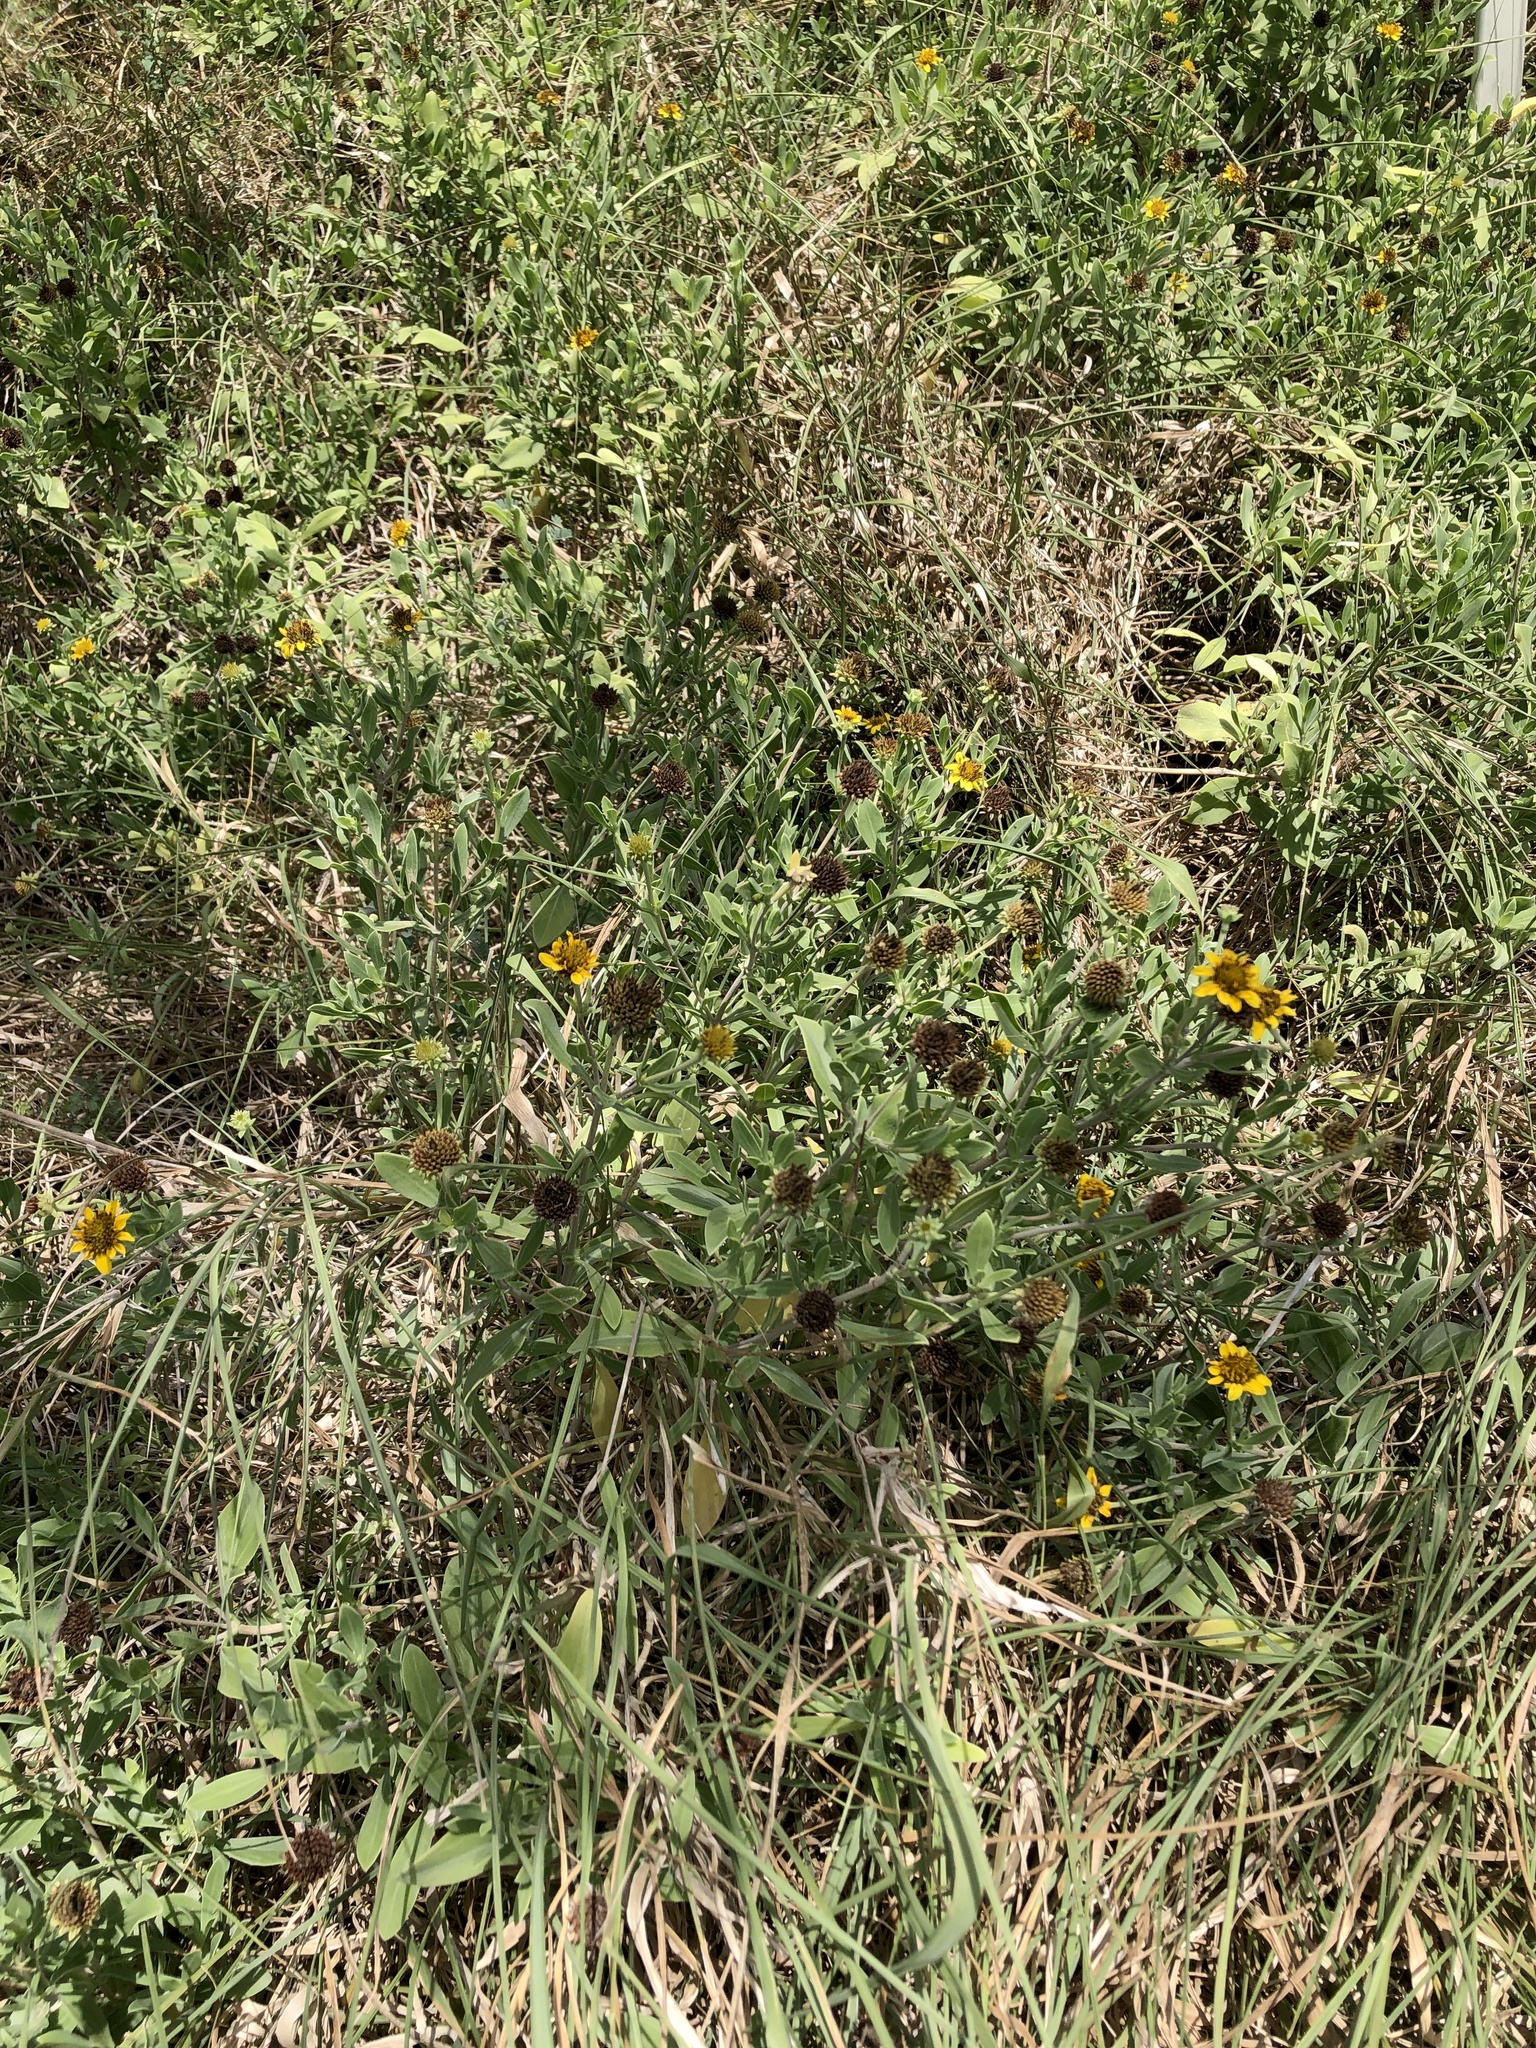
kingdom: Plantae
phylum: Tracheophyta
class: Magnoliopsida
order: Asterales
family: Asteraceae
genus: Borrichia
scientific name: Borrichia frutescens
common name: Sea oxeye
